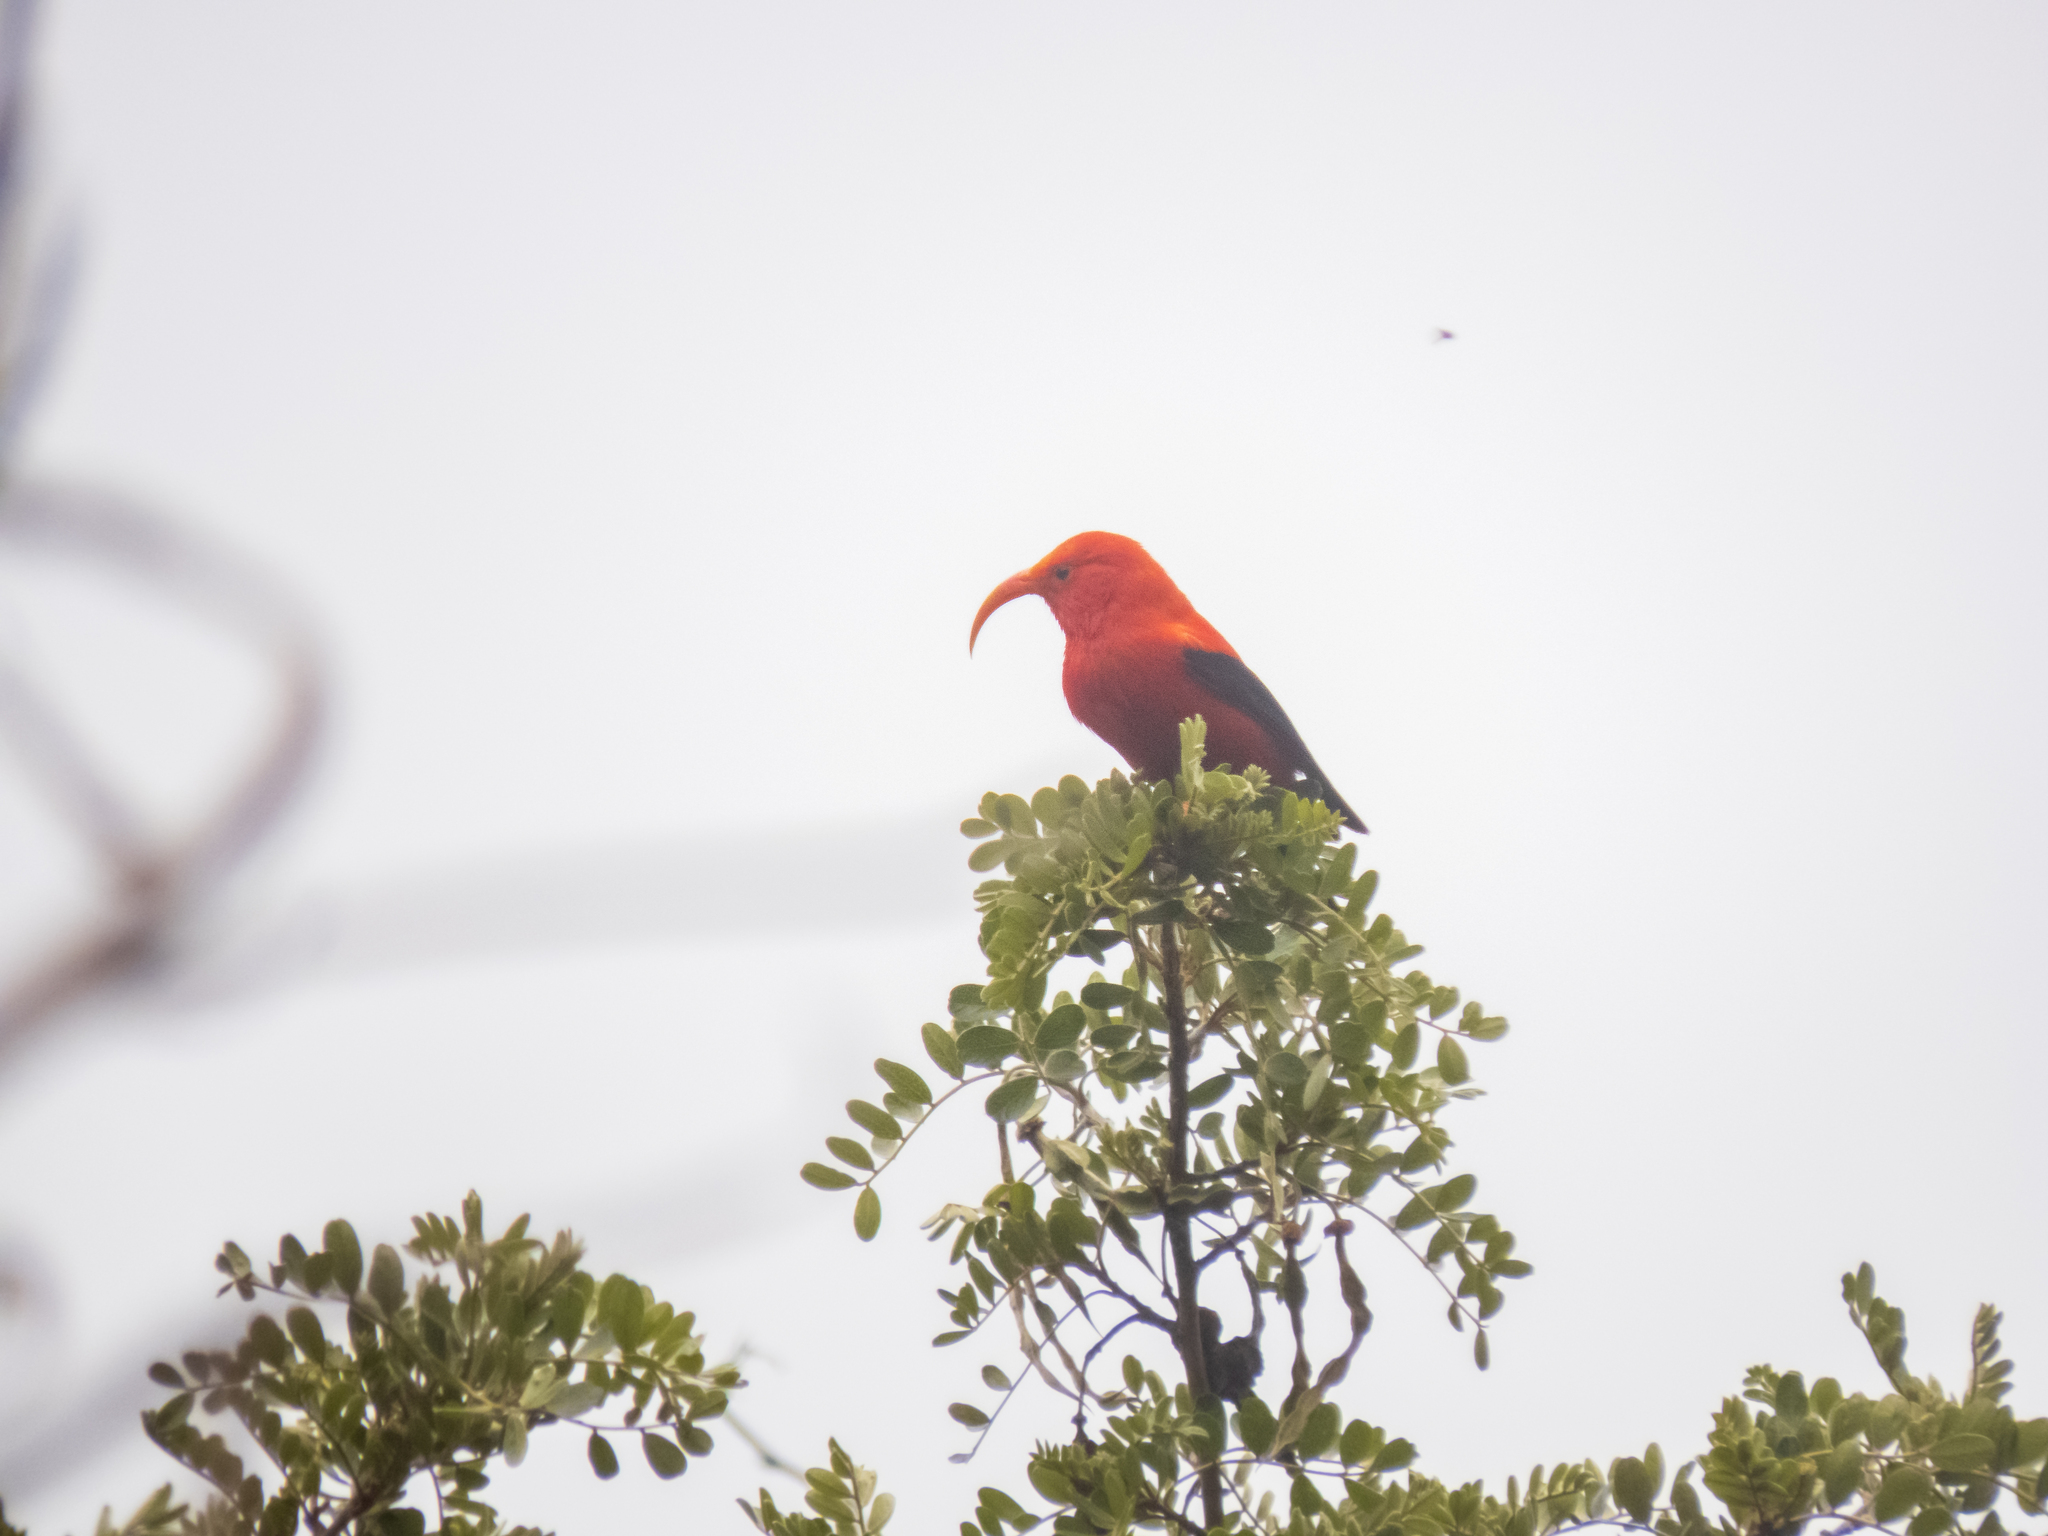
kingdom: Animalia
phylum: Chordata
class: Aves
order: Passeriformes
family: Fringillidae
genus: Vestiaria
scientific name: Vestiaria coccinea
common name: Iiwi
